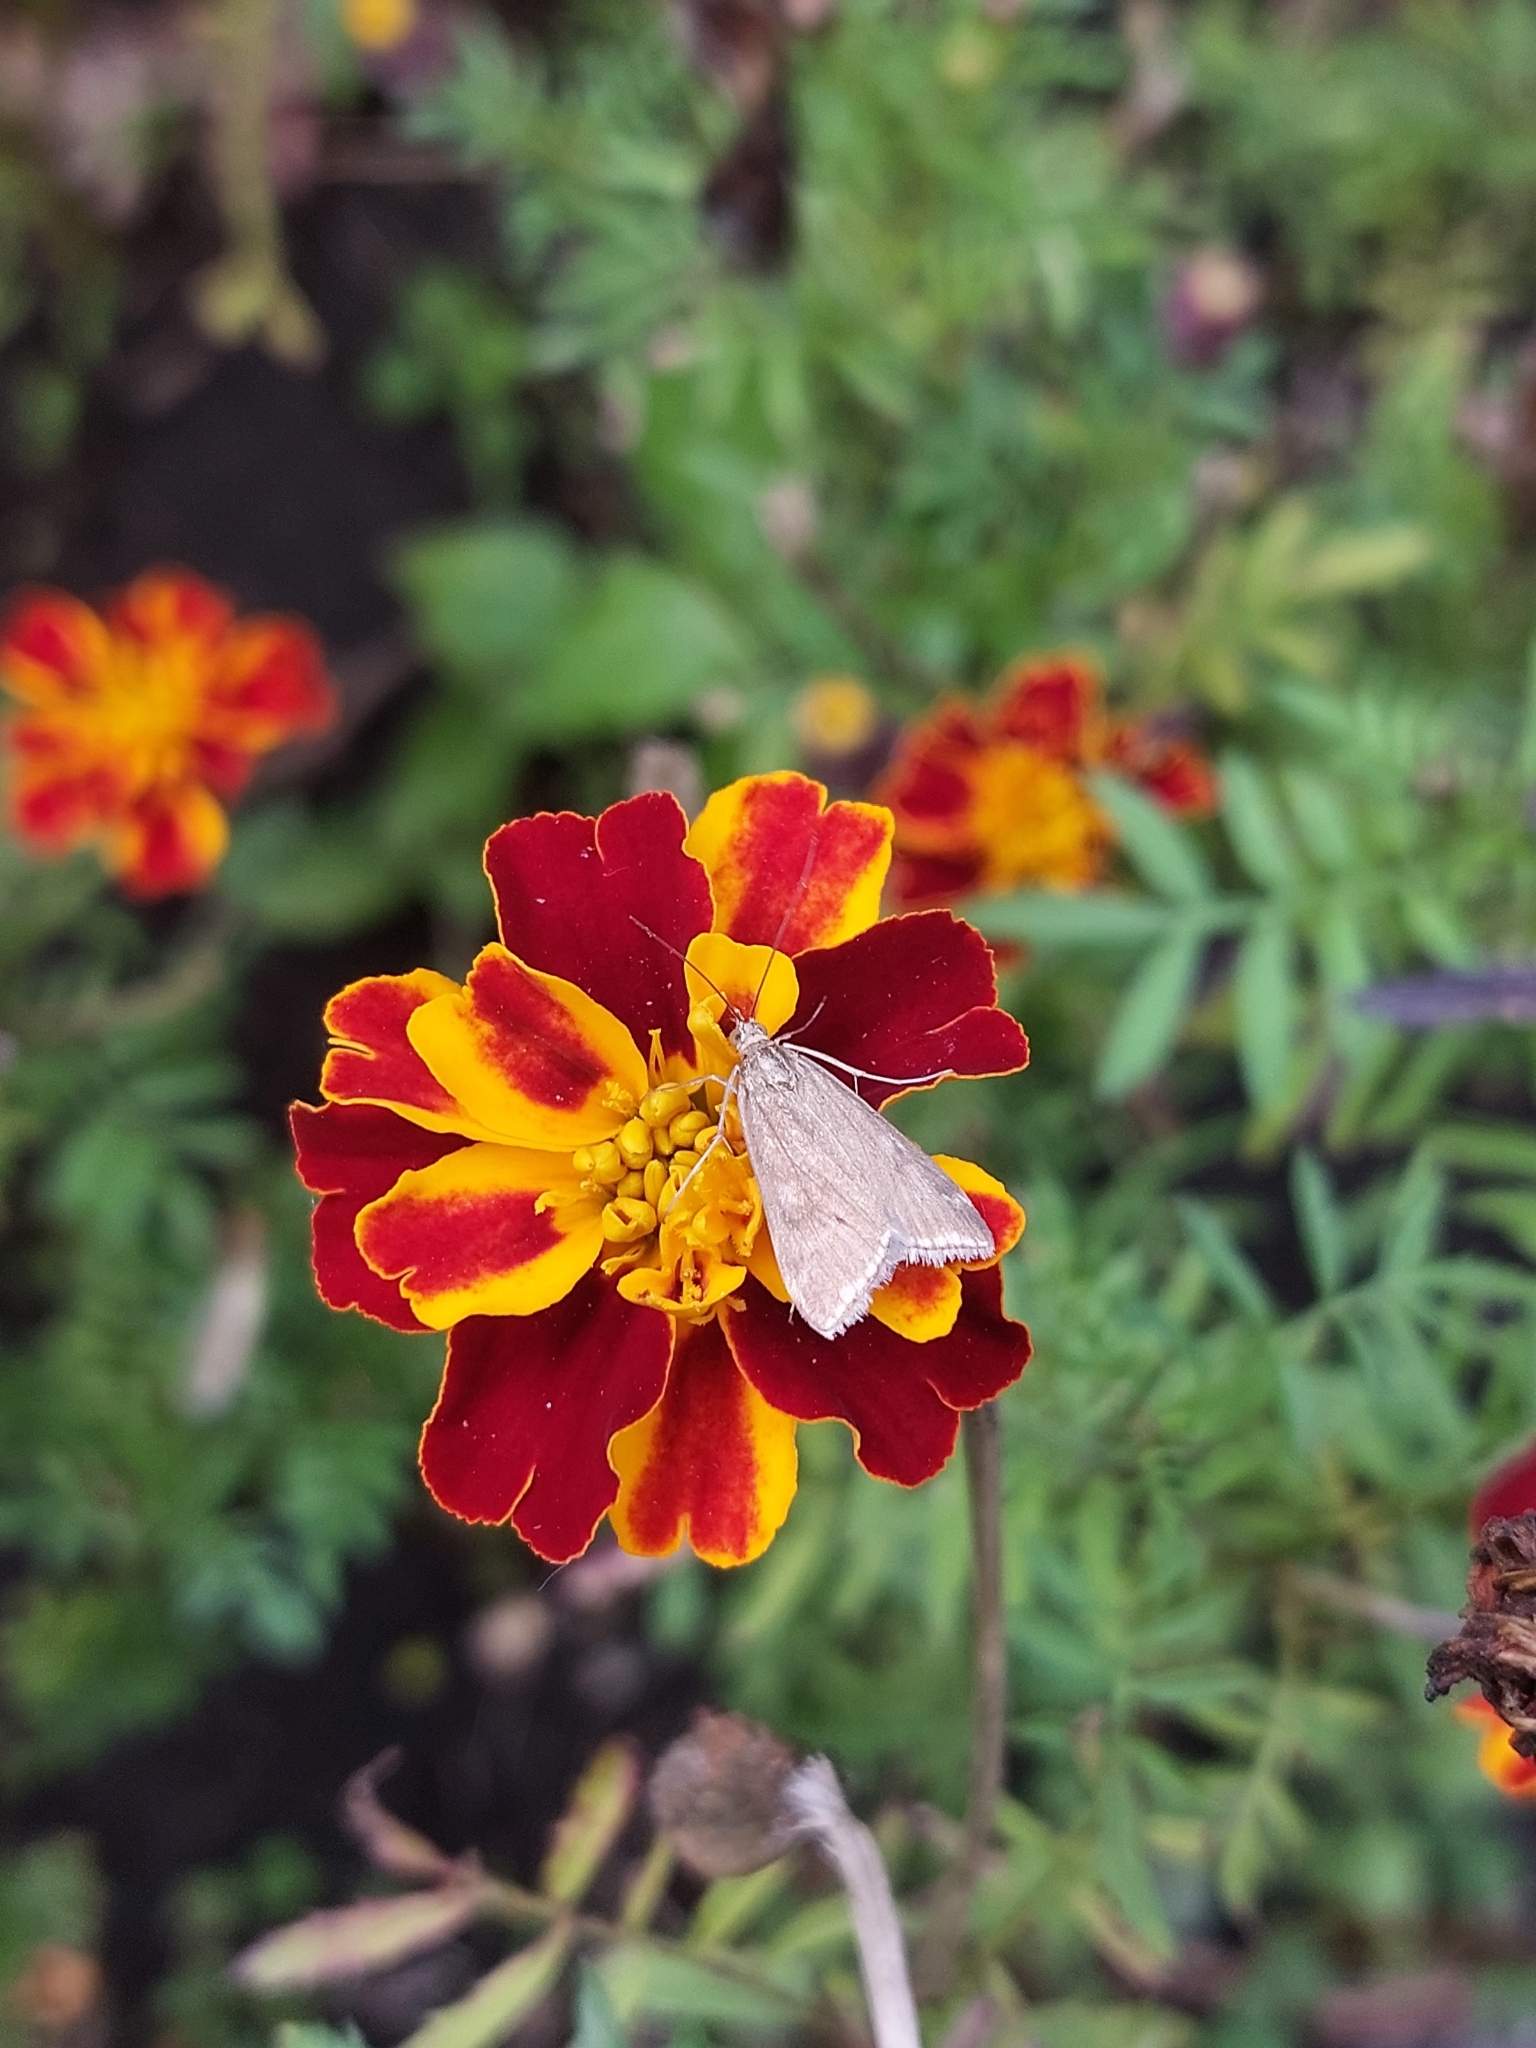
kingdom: Animalia
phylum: Arthropoda
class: Insecta
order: Lepidoptera
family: Crambidae
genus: Loxostege
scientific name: Loxostege sticticalis
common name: Crambid moth
